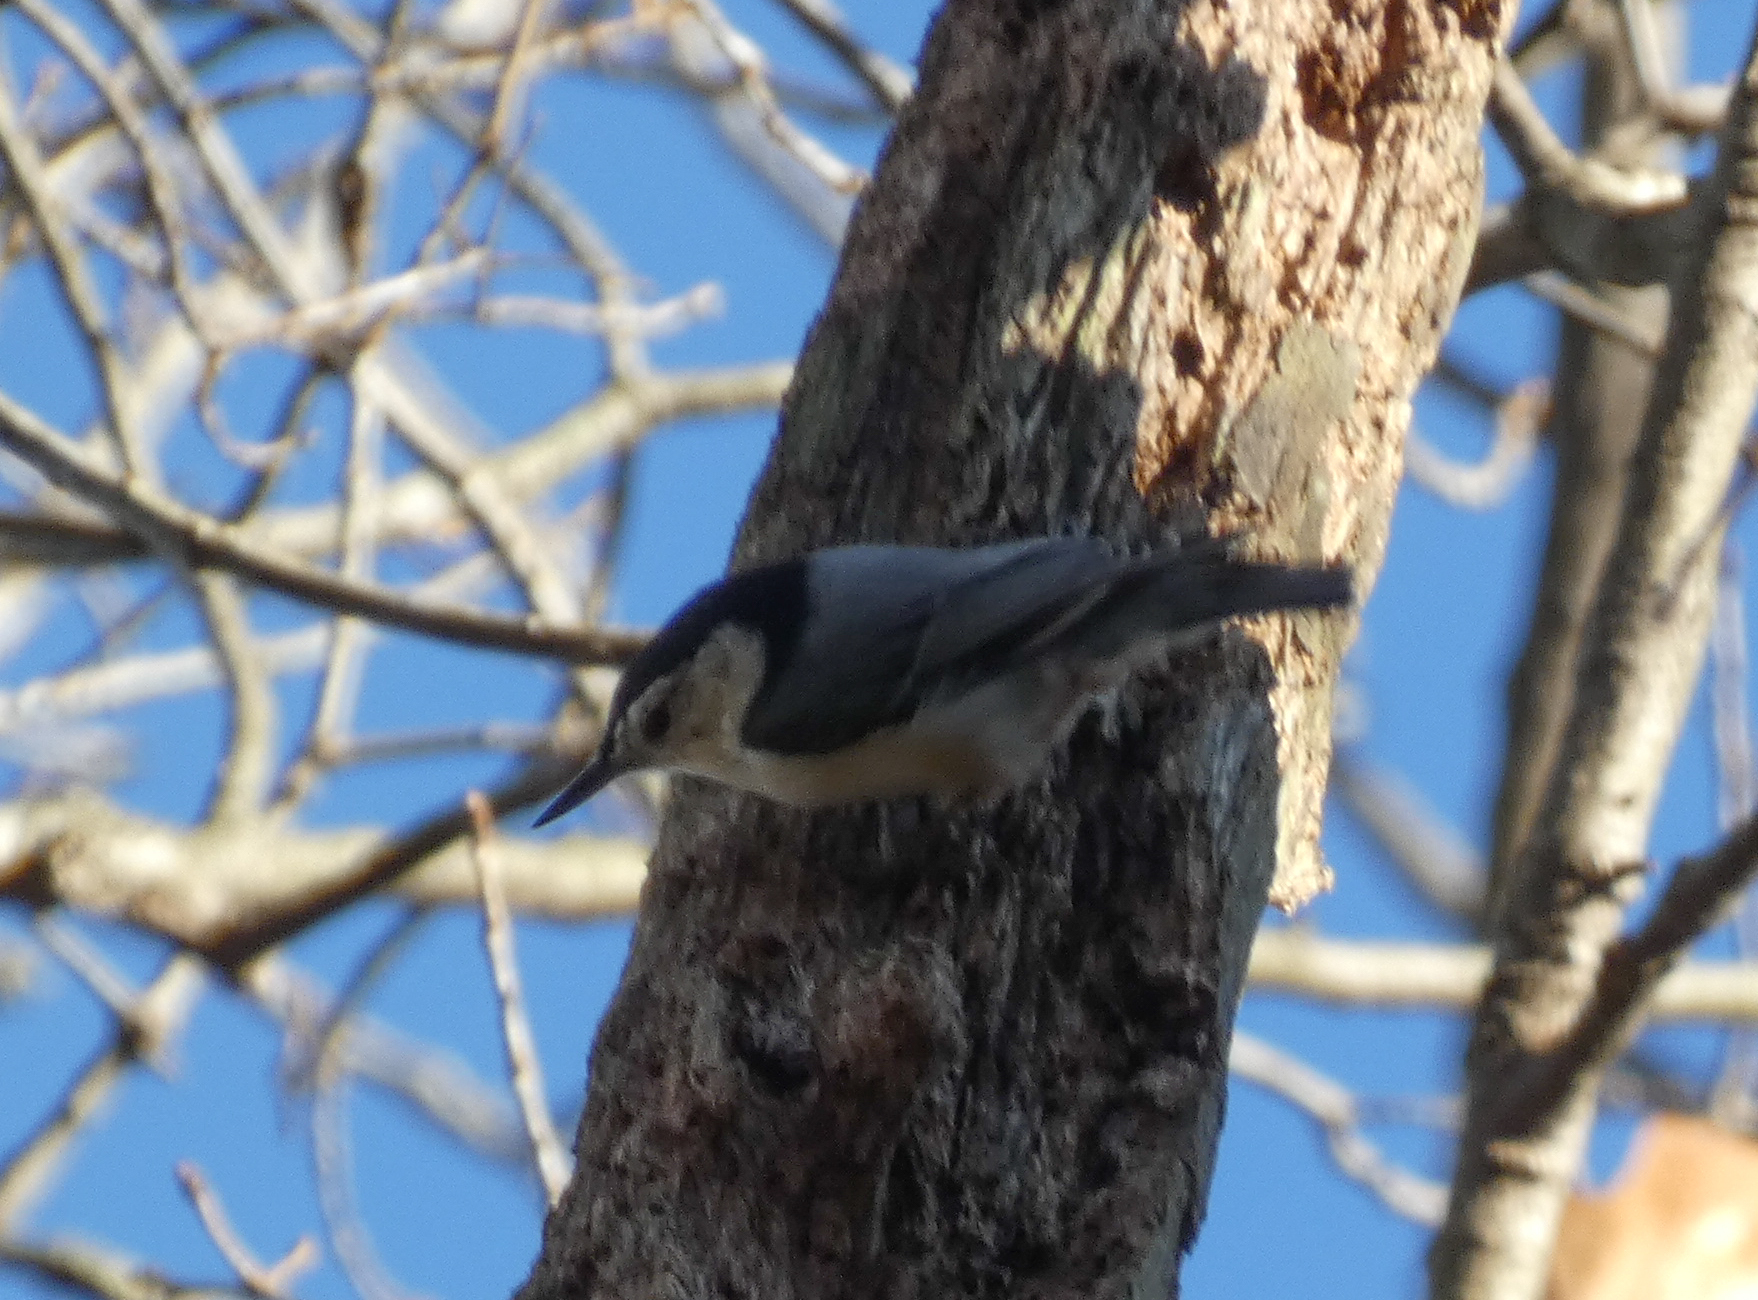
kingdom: Animalia
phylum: Chordata
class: Aves
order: Passeriformes
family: Sittidae
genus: Sitta
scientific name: Sitta carolinensis
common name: White-breasted nuthatch
